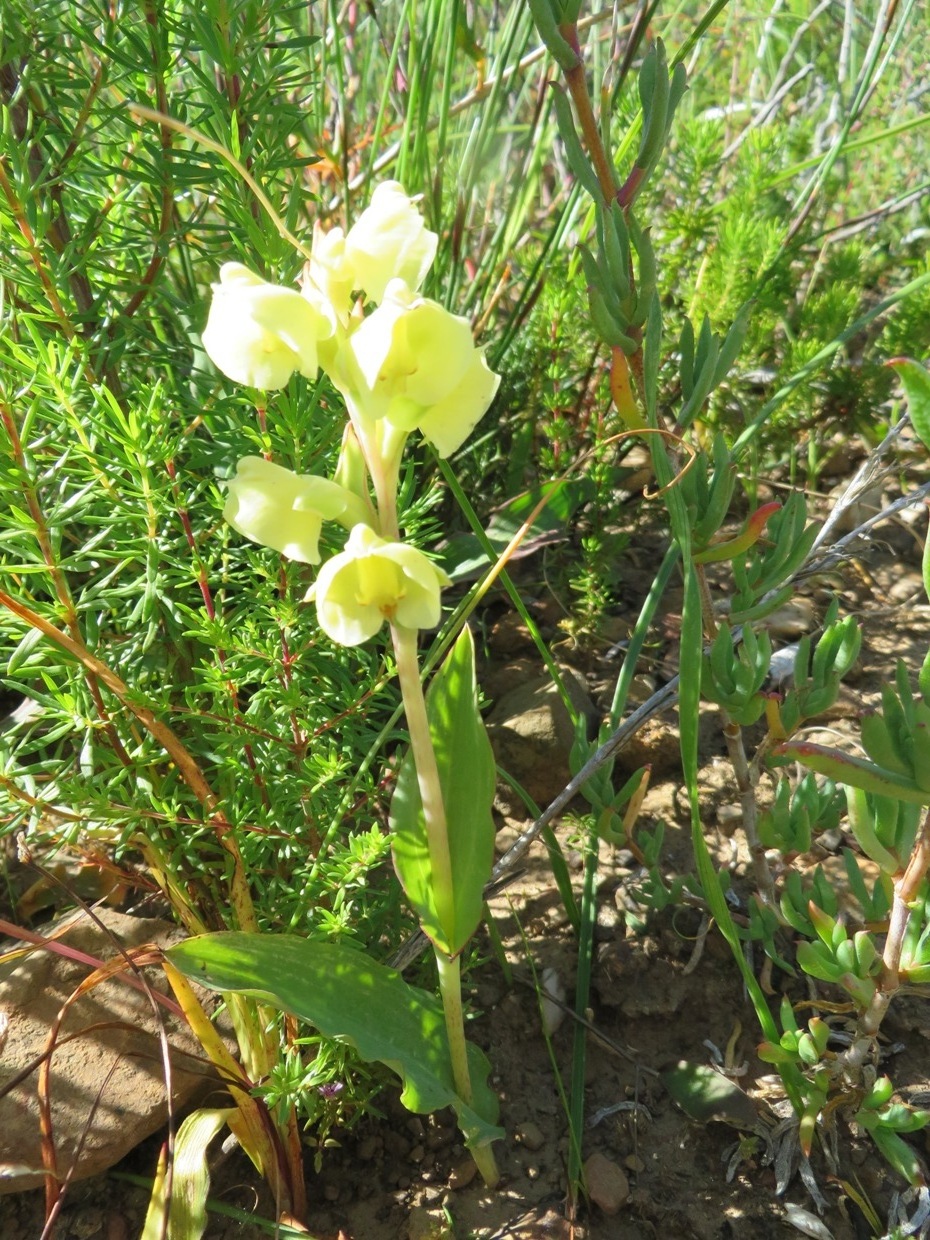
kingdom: Plantae
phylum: Tracheophyta
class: Liliopsida
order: Asparagales
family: Orchidaceae
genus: Pterygodium
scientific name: Pterygodium catholicum
